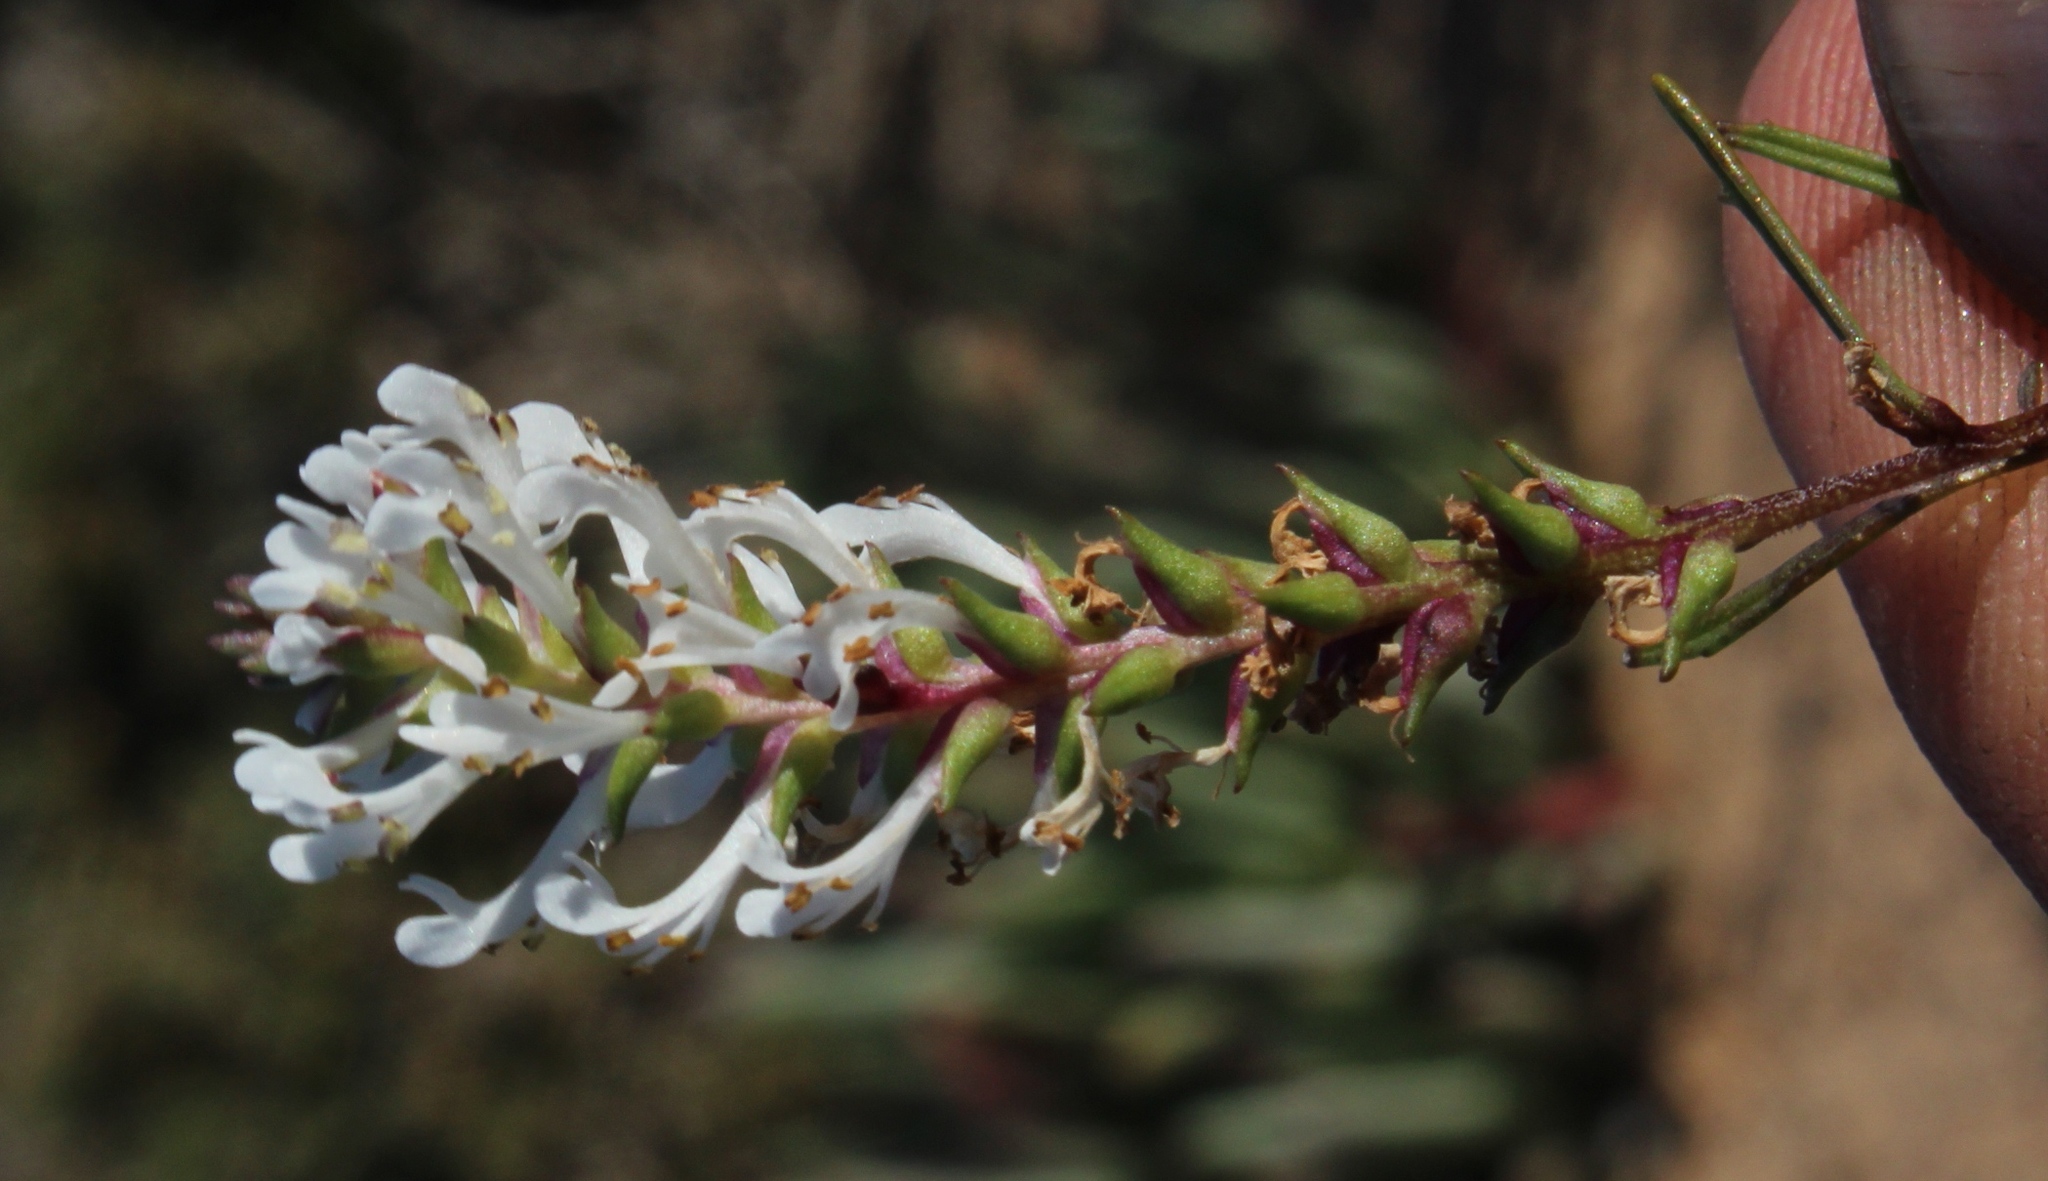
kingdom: Plantae
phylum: Tracheophyta
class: Magnoliopsida
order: Lamiales
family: Scrophulariaceae
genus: Hebenstretia
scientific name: Hebenstretia repens
